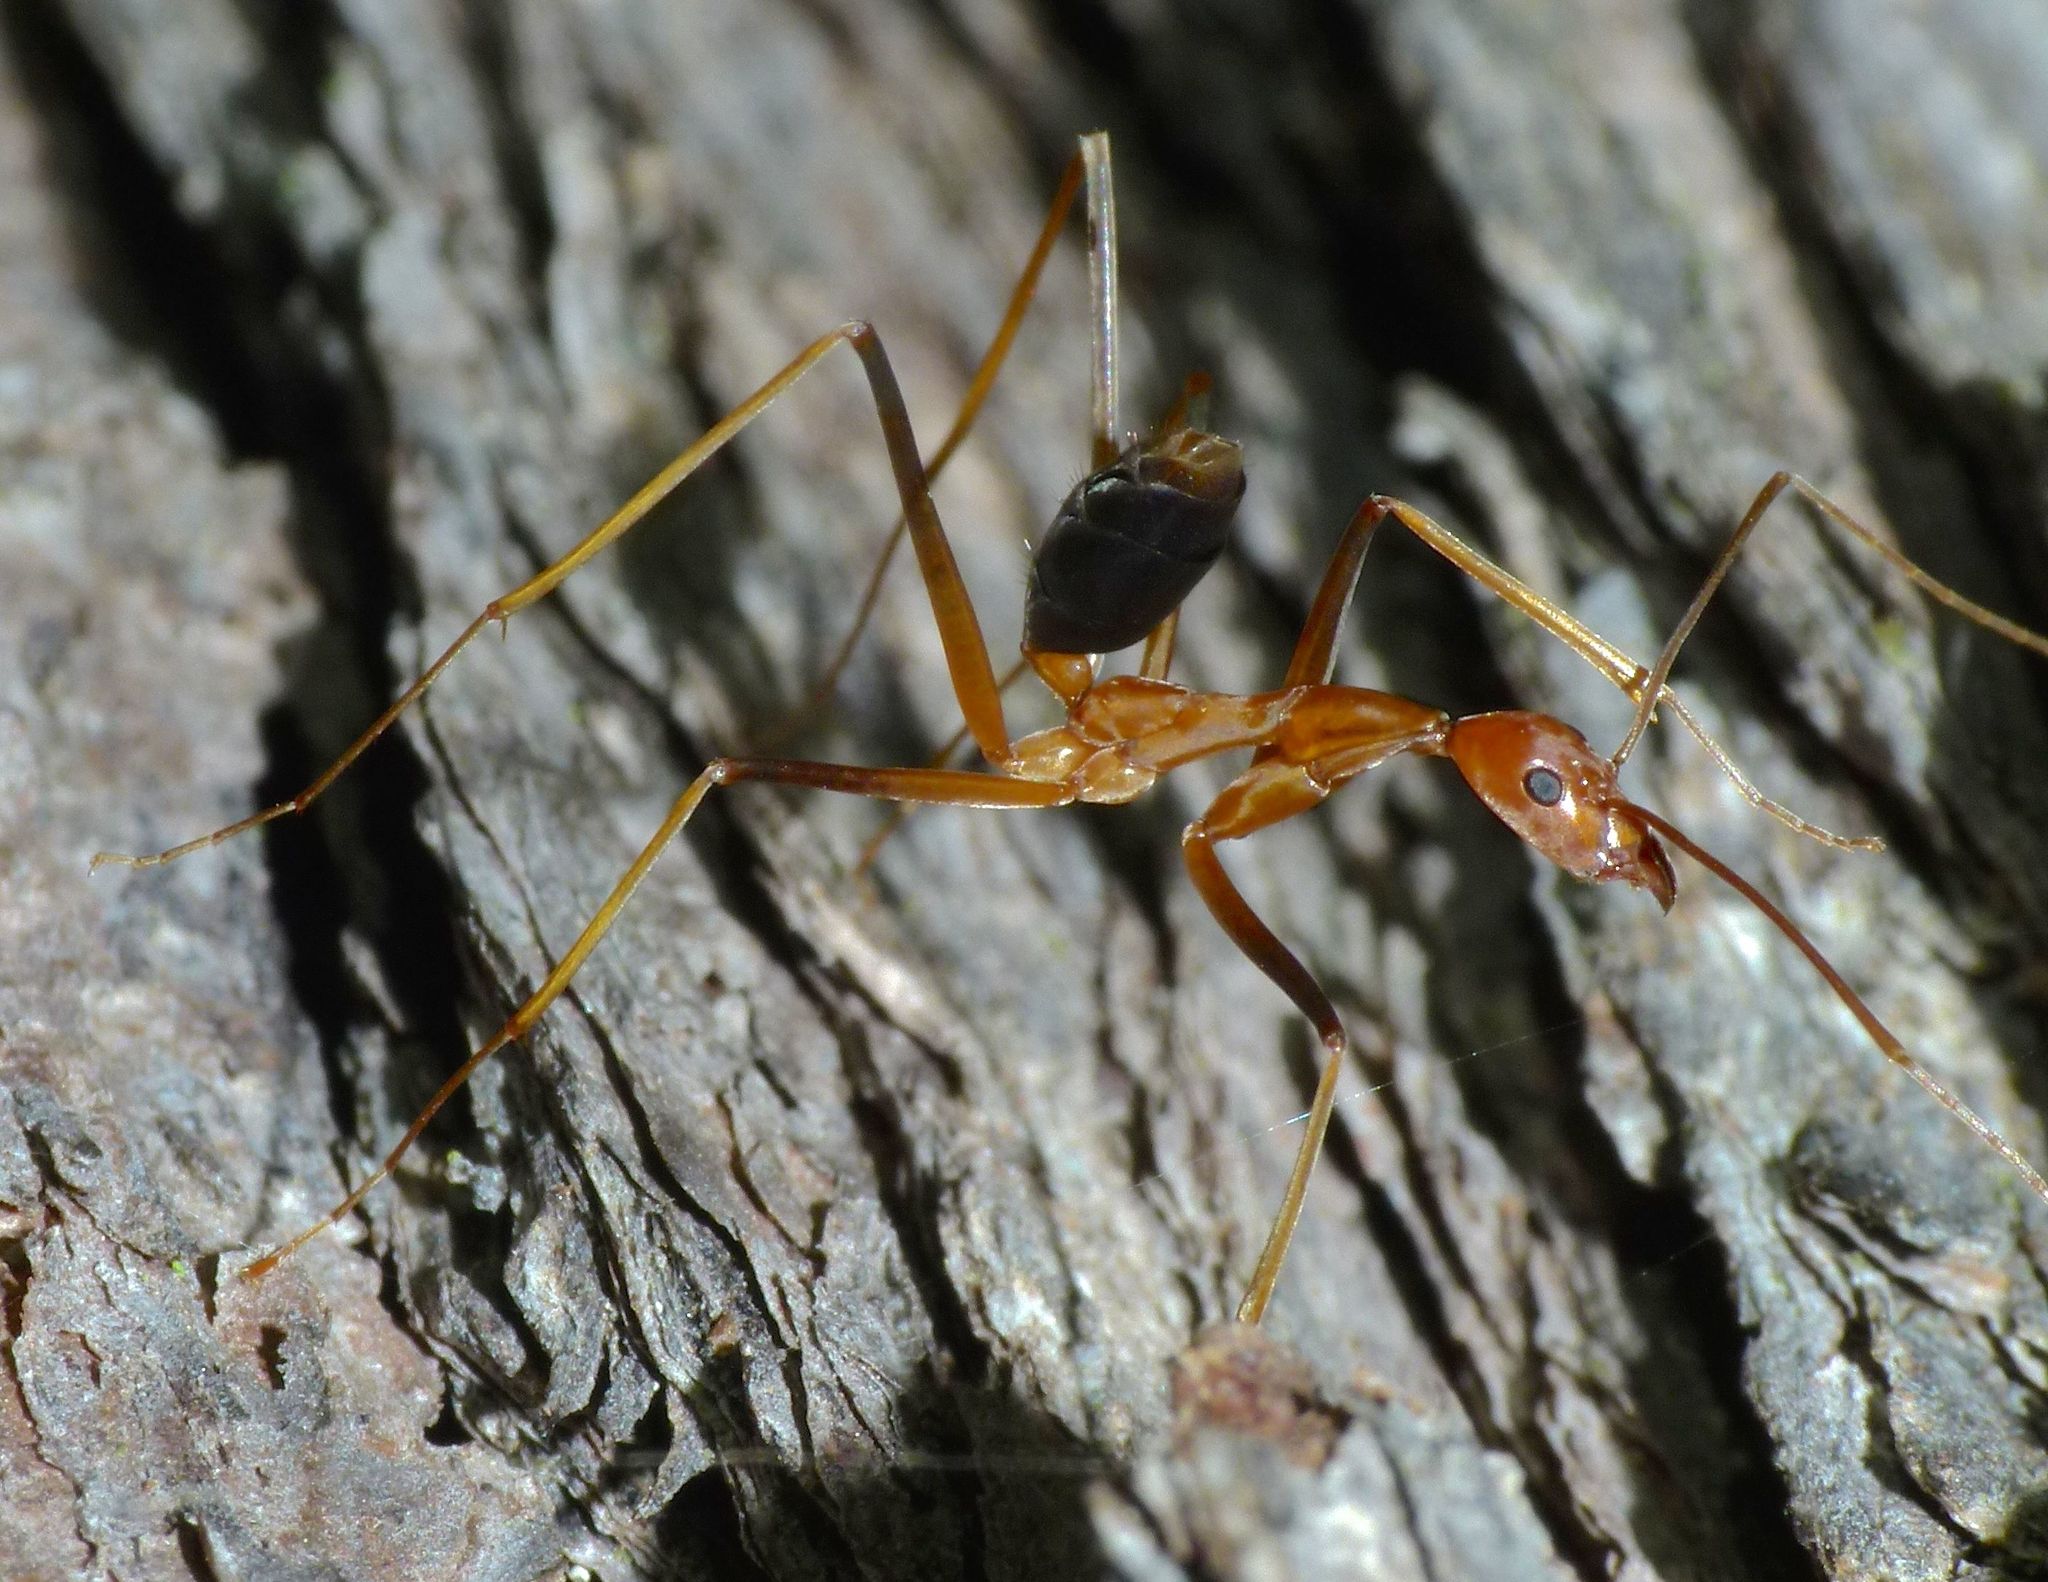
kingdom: Animalia
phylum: Arthropoda
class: Insecta
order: Hymenoptera
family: Formicidae
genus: Leptomyrmex
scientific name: Leptomyrmex rufipes
